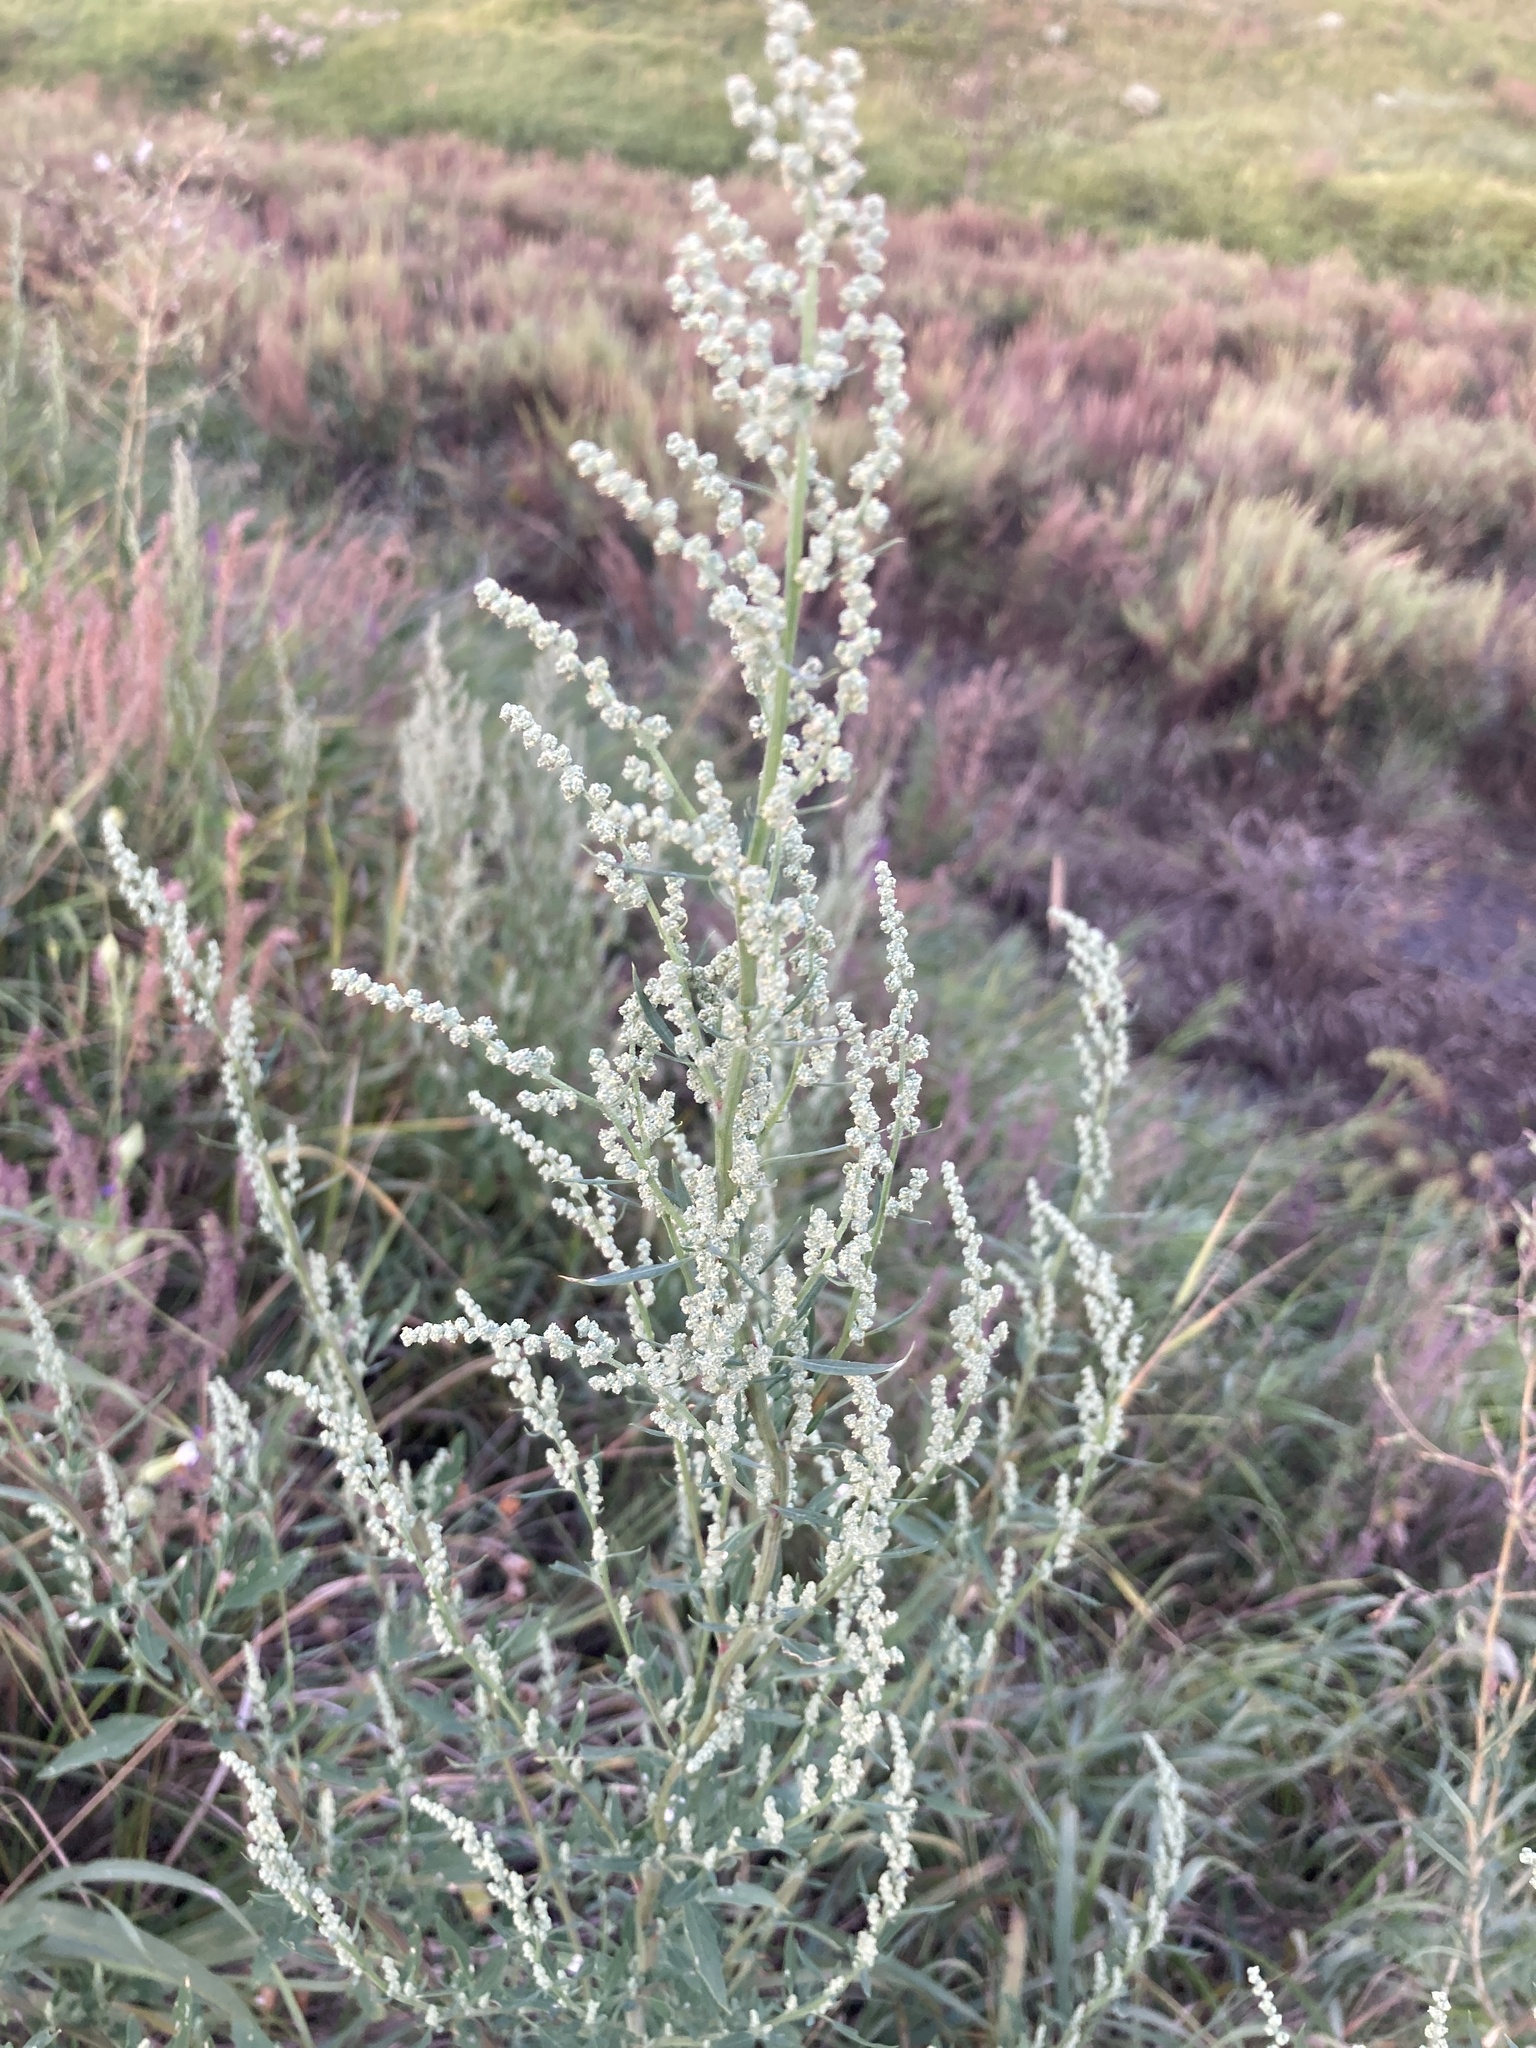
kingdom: Plantae
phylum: Tracheophyta
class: Magnoliopsida
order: Asterales
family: Asteraceae
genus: Artemisia
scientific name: Artemisia vulgaris
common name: Mugwort
